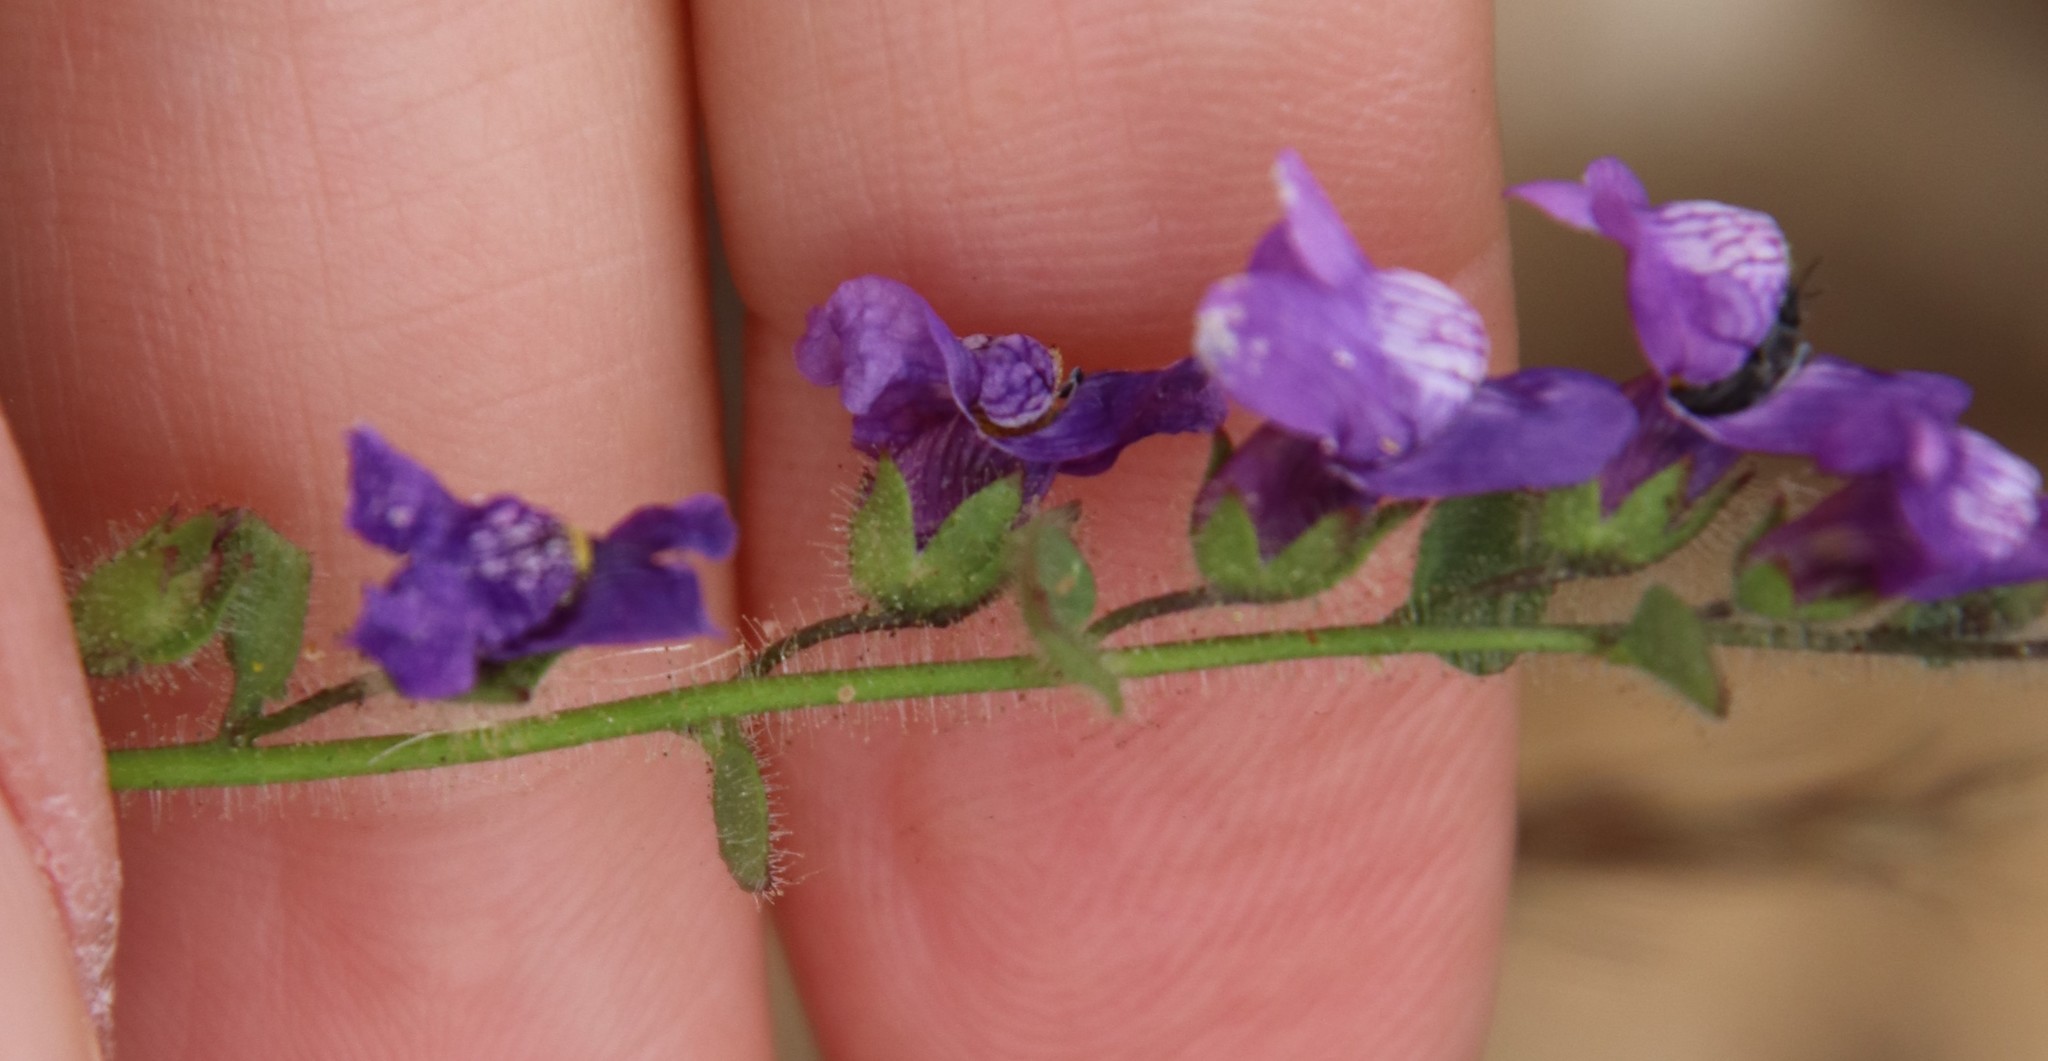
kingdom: Plantae
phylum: Tracheophyta
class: Magnoliopsida
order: Lamiales
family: Plantaginaceae
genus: Sairocarpus
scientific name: Sairocarpus nuttallianus
